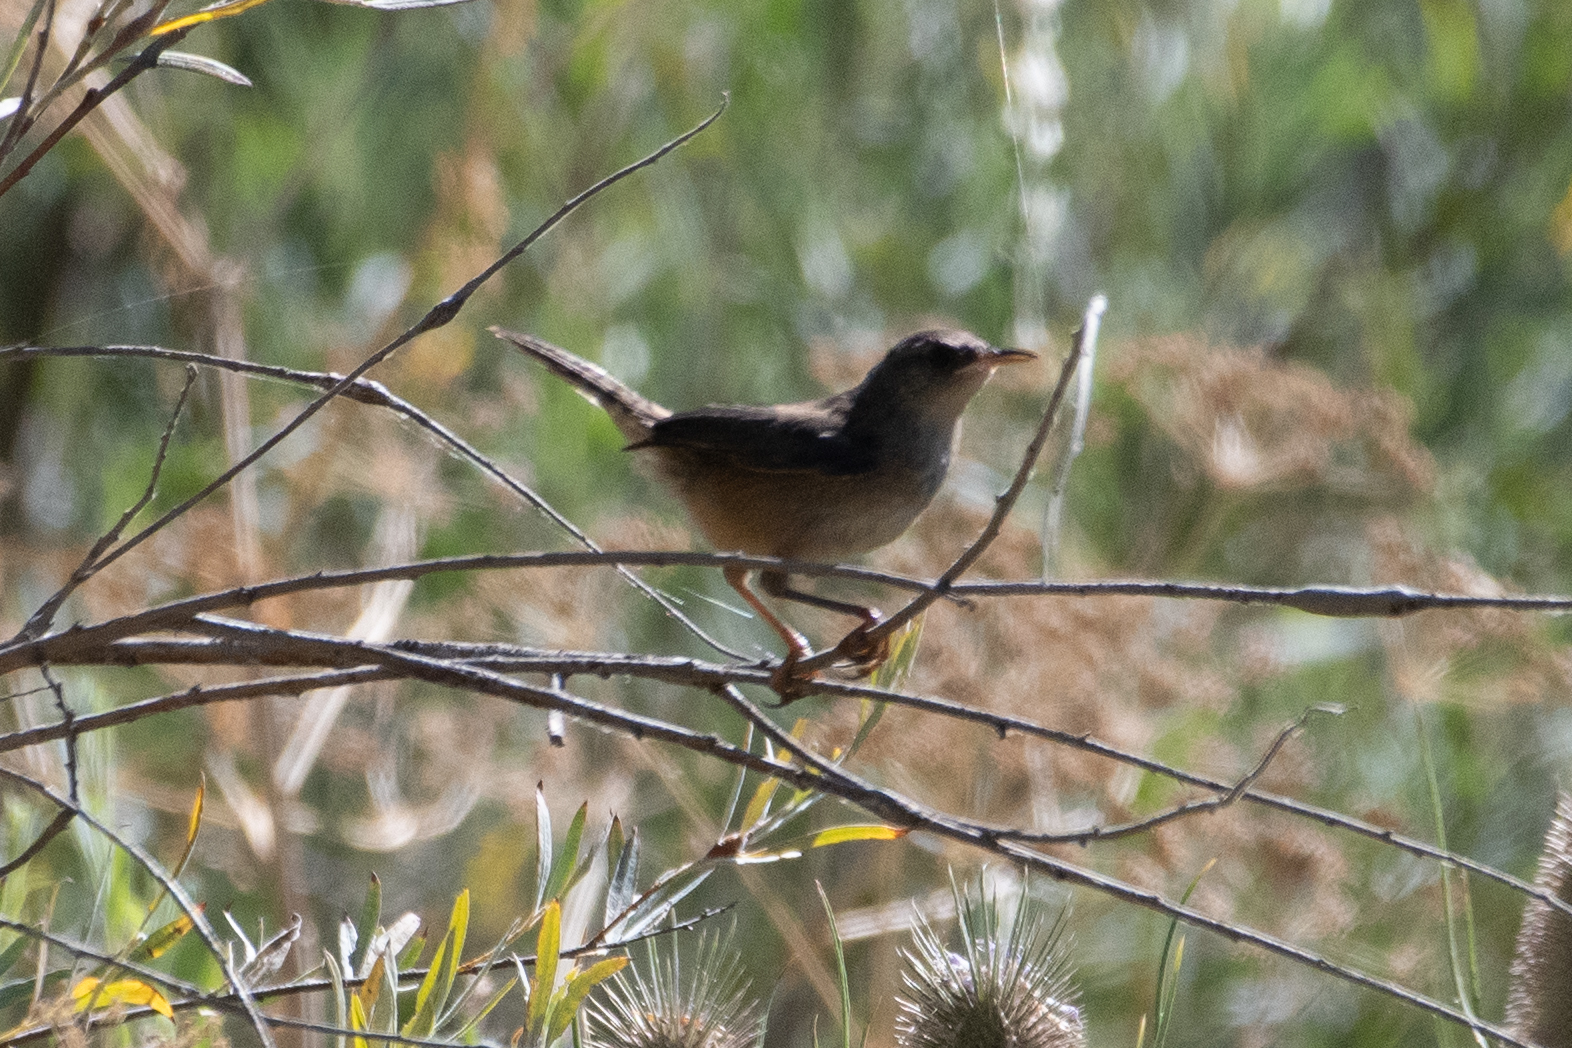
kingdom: Animalia
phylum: Chordata
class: Aves
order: Passeriformes
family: Troglodytidae
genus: Cistothorus
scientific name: Cistothorus palustris
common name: Marsh wren
